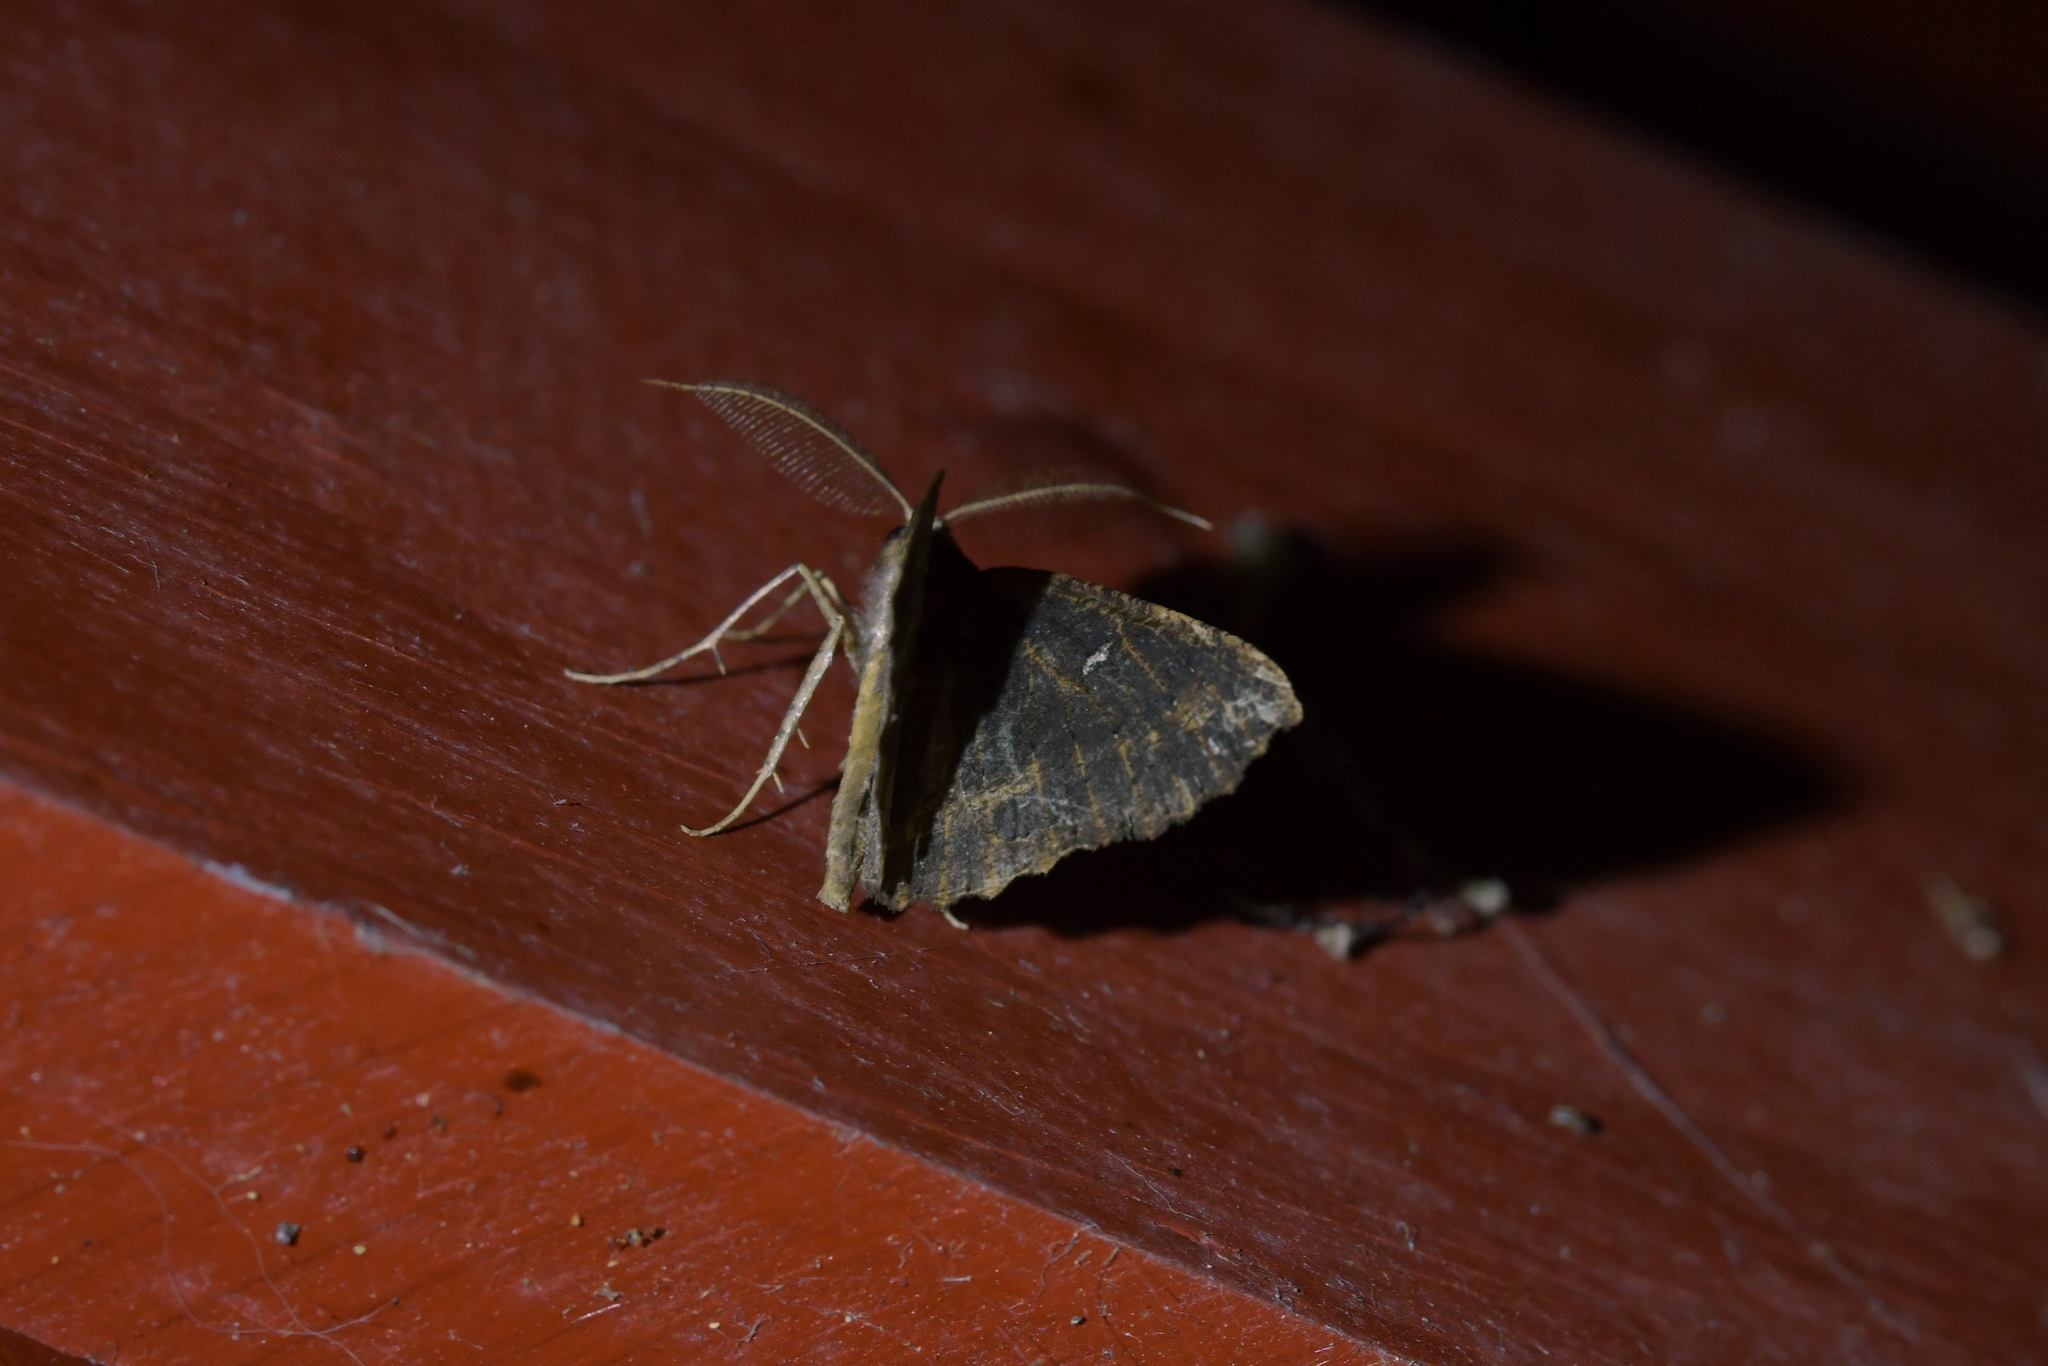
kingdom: Animalia
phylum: Arthropoda
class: Insecta
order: Lepidoptera
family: Geometridae
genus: Cleora
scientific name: Cleora scriptaria
